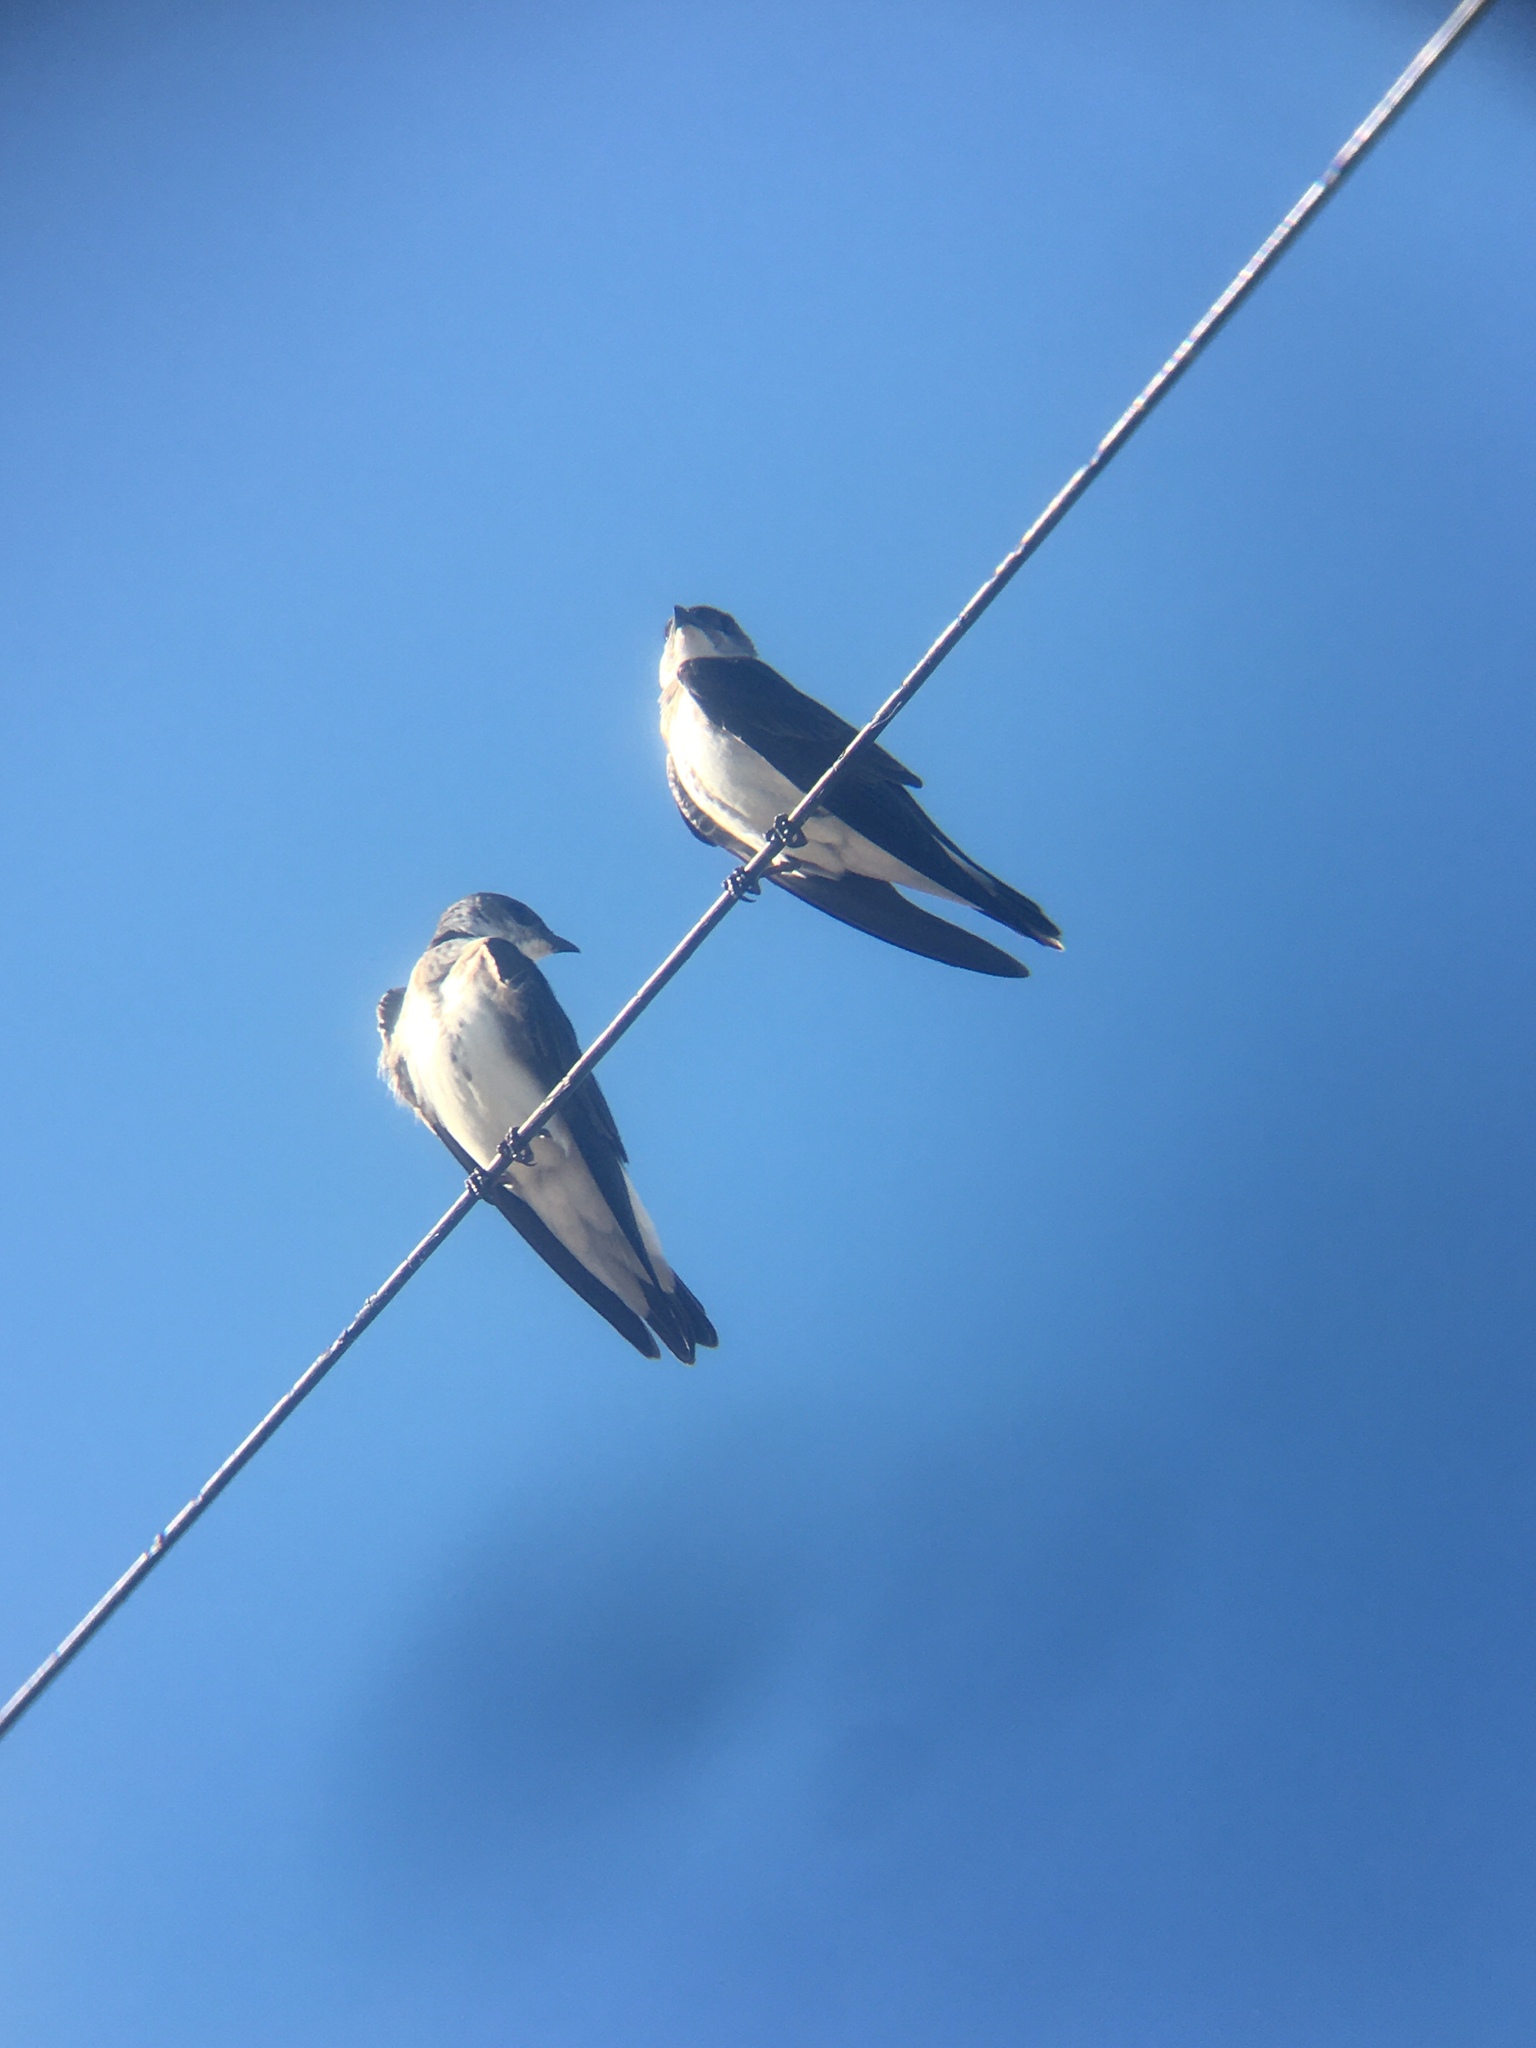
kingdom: Animalia
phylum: Chordata
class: Aves
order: Passeriformes
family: Hirundinidae
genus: Progne
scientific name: Progne tapera
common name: Brown-chested martin
